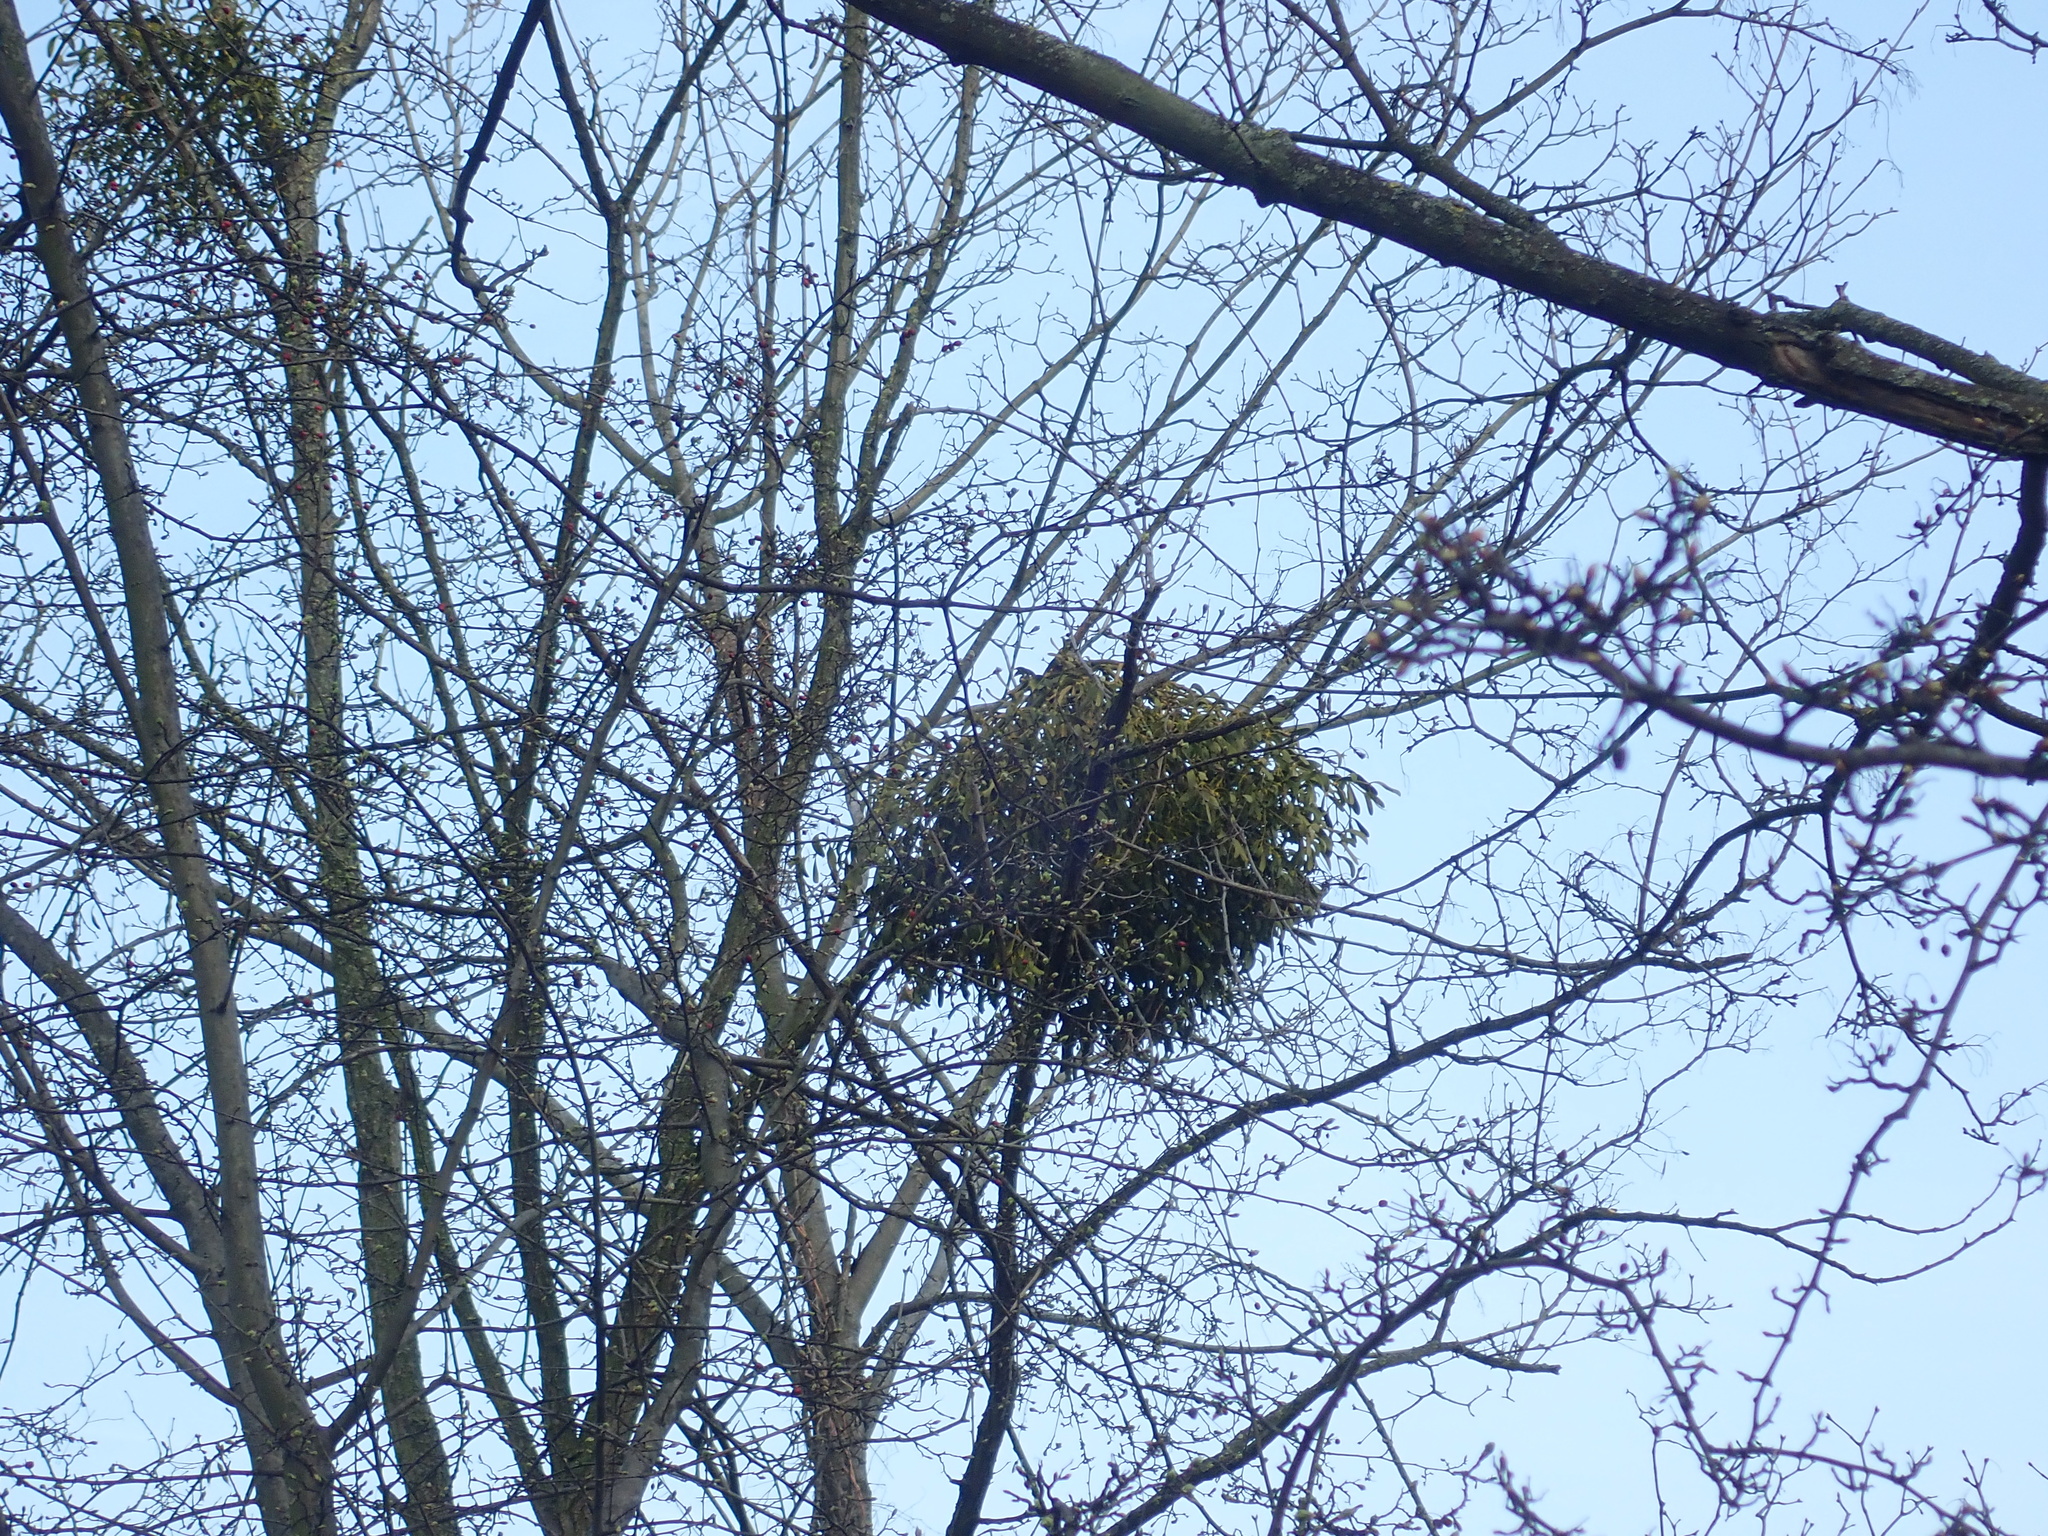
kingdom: Plantae
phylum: Tracheophyta
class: Magnoliopsida
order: Santalales
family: Viscaceae
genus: Viscum
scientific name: Viscum album
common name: Mistletoe
